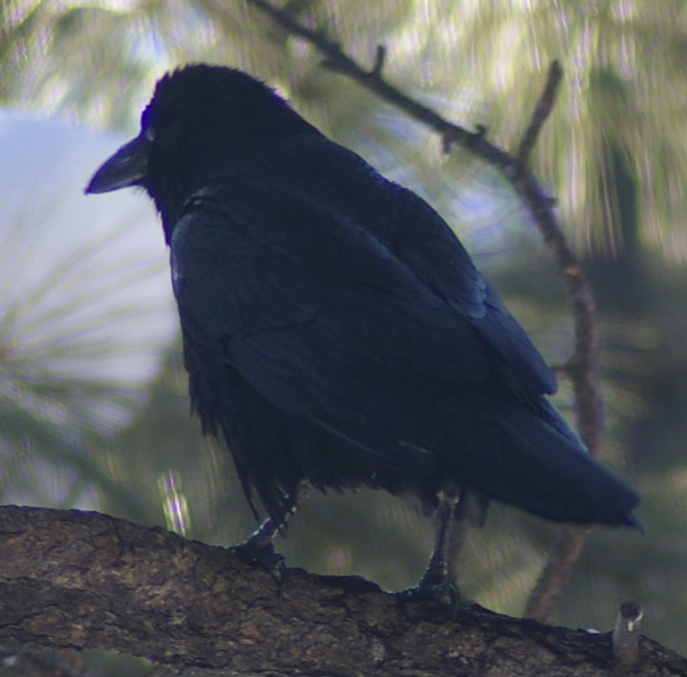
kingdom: Animalia
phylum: Chordata
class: Aves
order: Passeriformes
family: Corvidae
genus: Corvus
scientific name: Corvus corax
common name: Common raven
